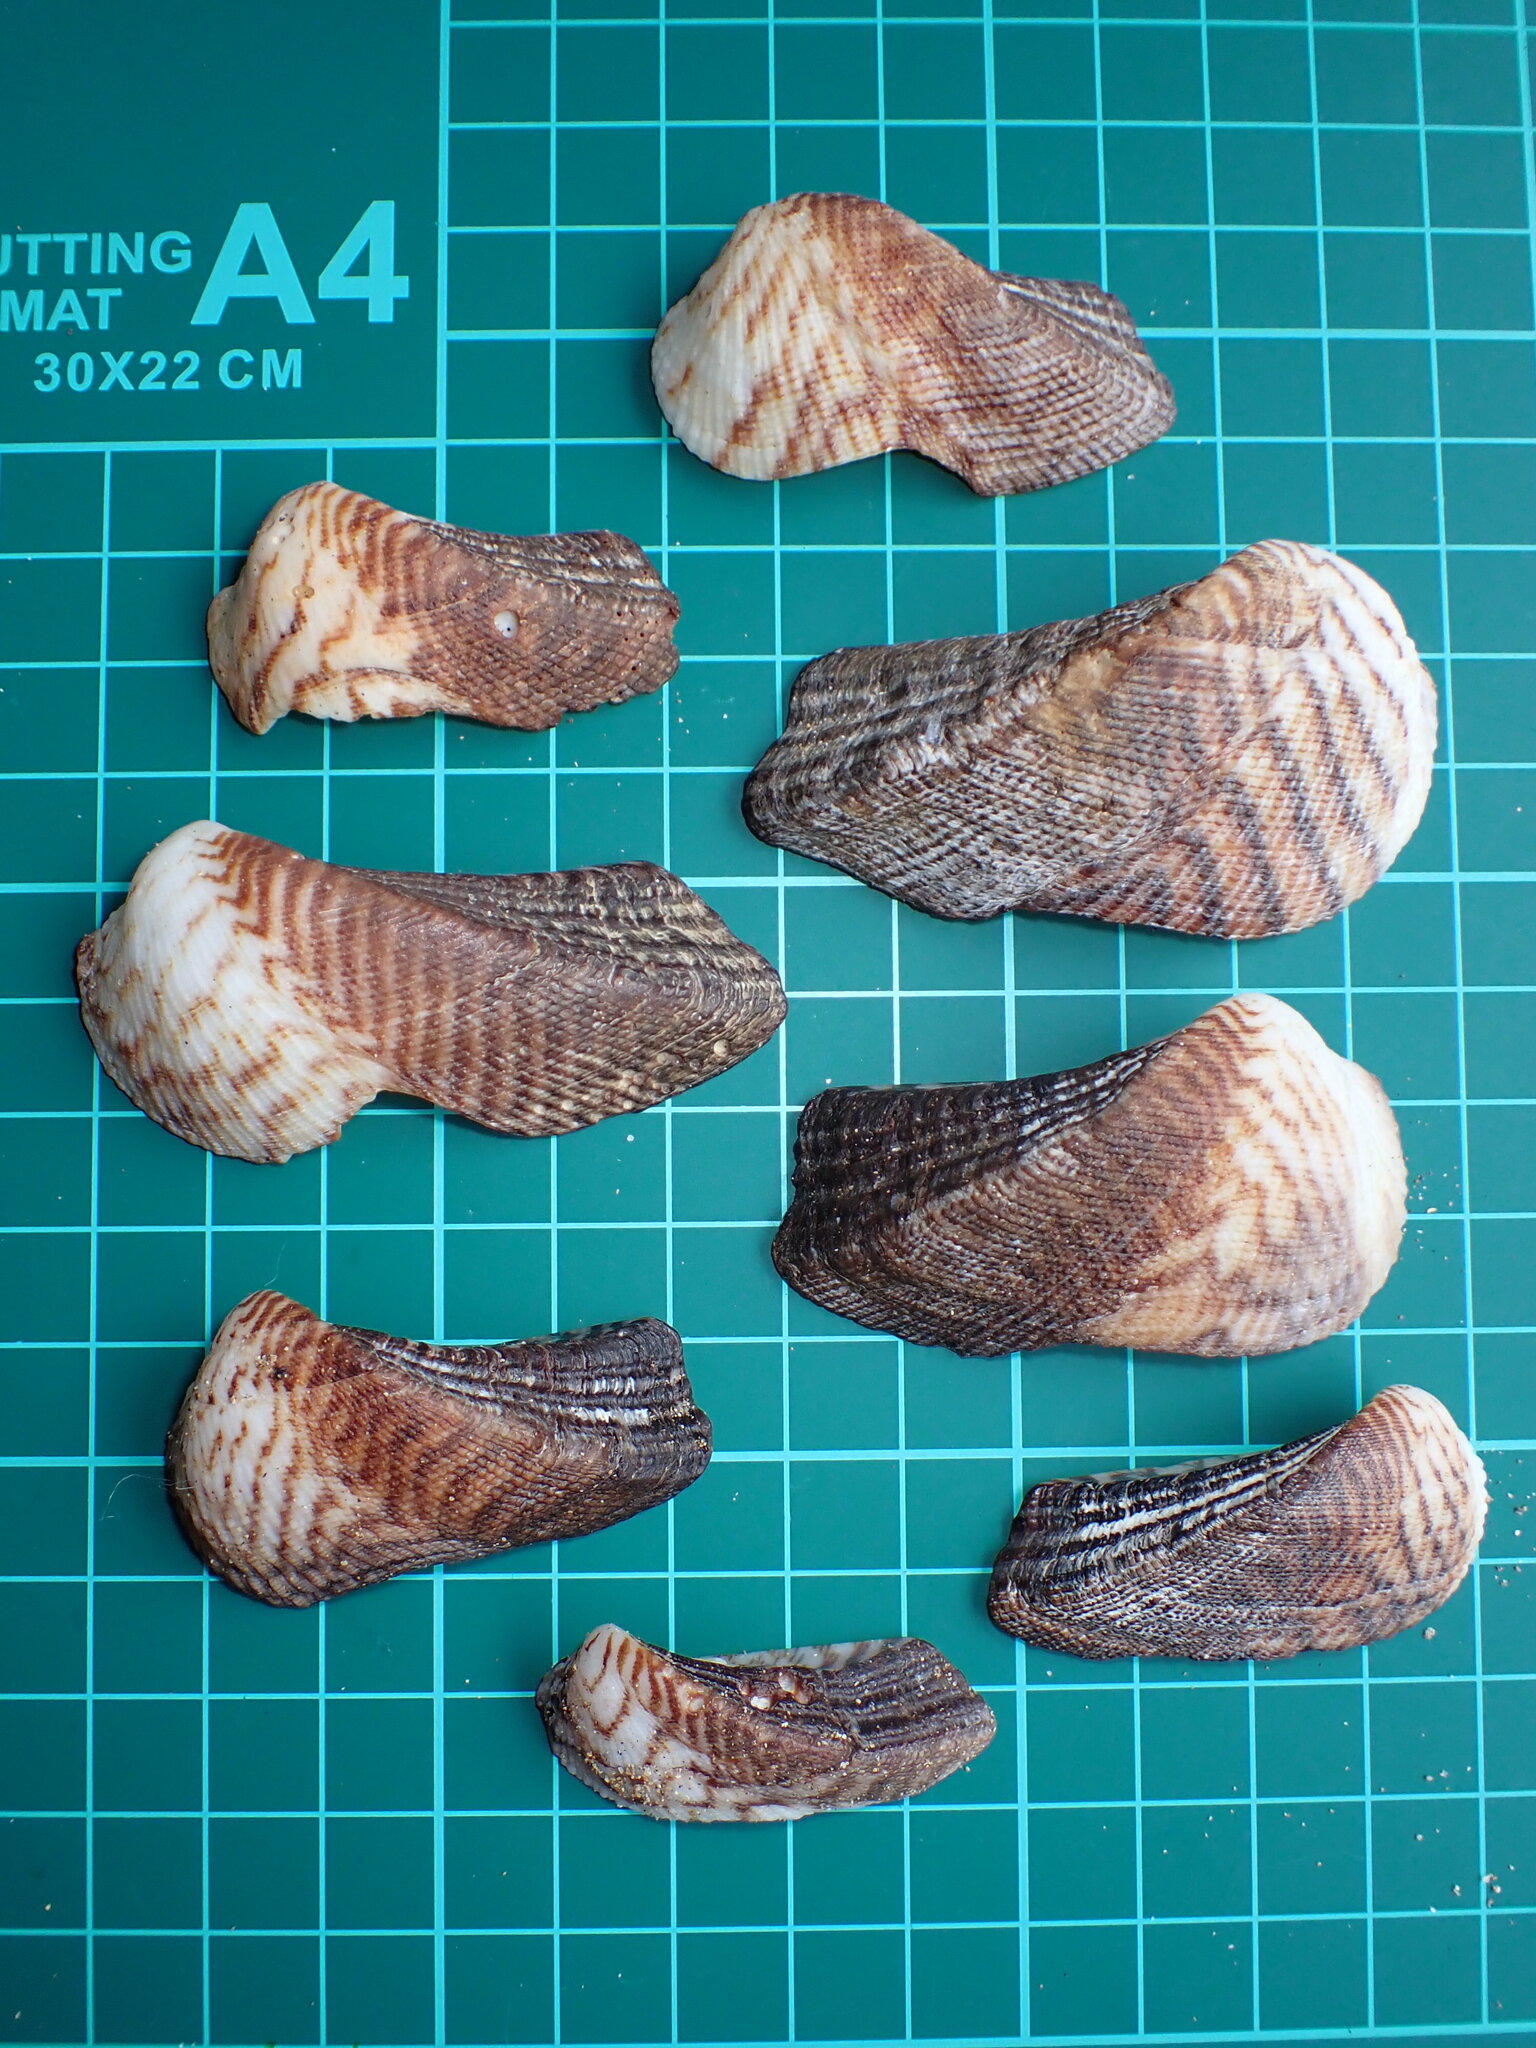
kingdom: Animalia
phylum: Mollusca
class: Bivalvia
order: Arcida
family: Arcidae
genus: Lamarcka
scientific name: Lamarcka ventricosa
